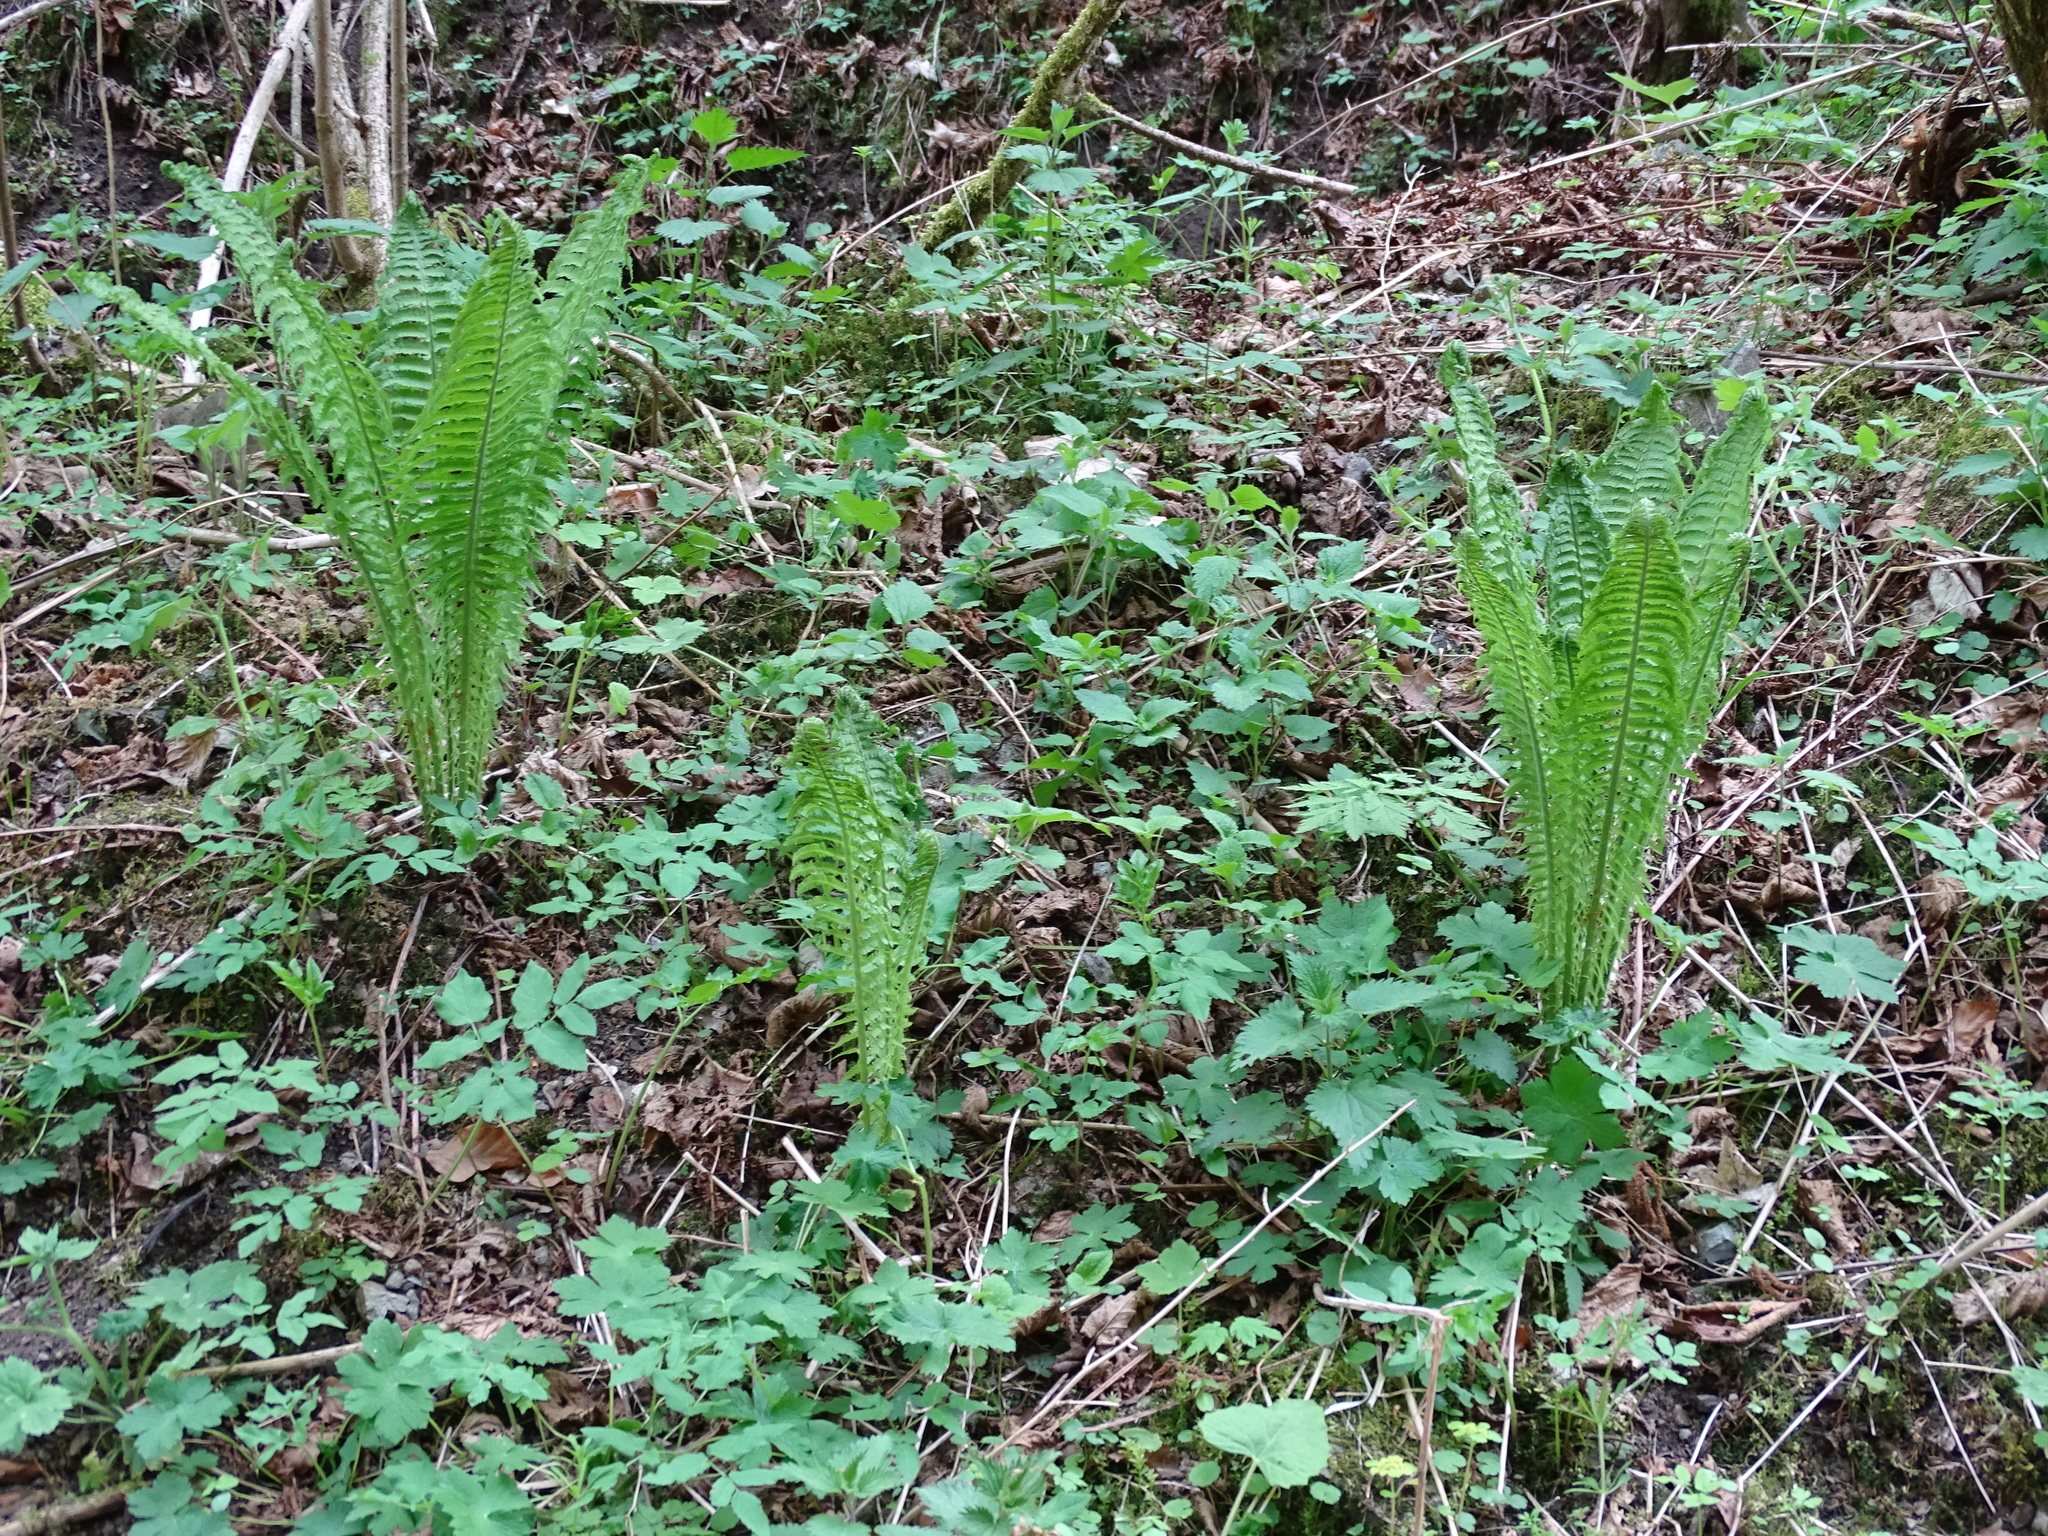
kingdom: Plantae
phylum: Tracheophyta
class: Polypodiopsida
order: Polypodiales
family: Onocleaceae
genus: Matteuccia
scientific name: Matteuccia struthiopteris
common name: Ostrich fern
